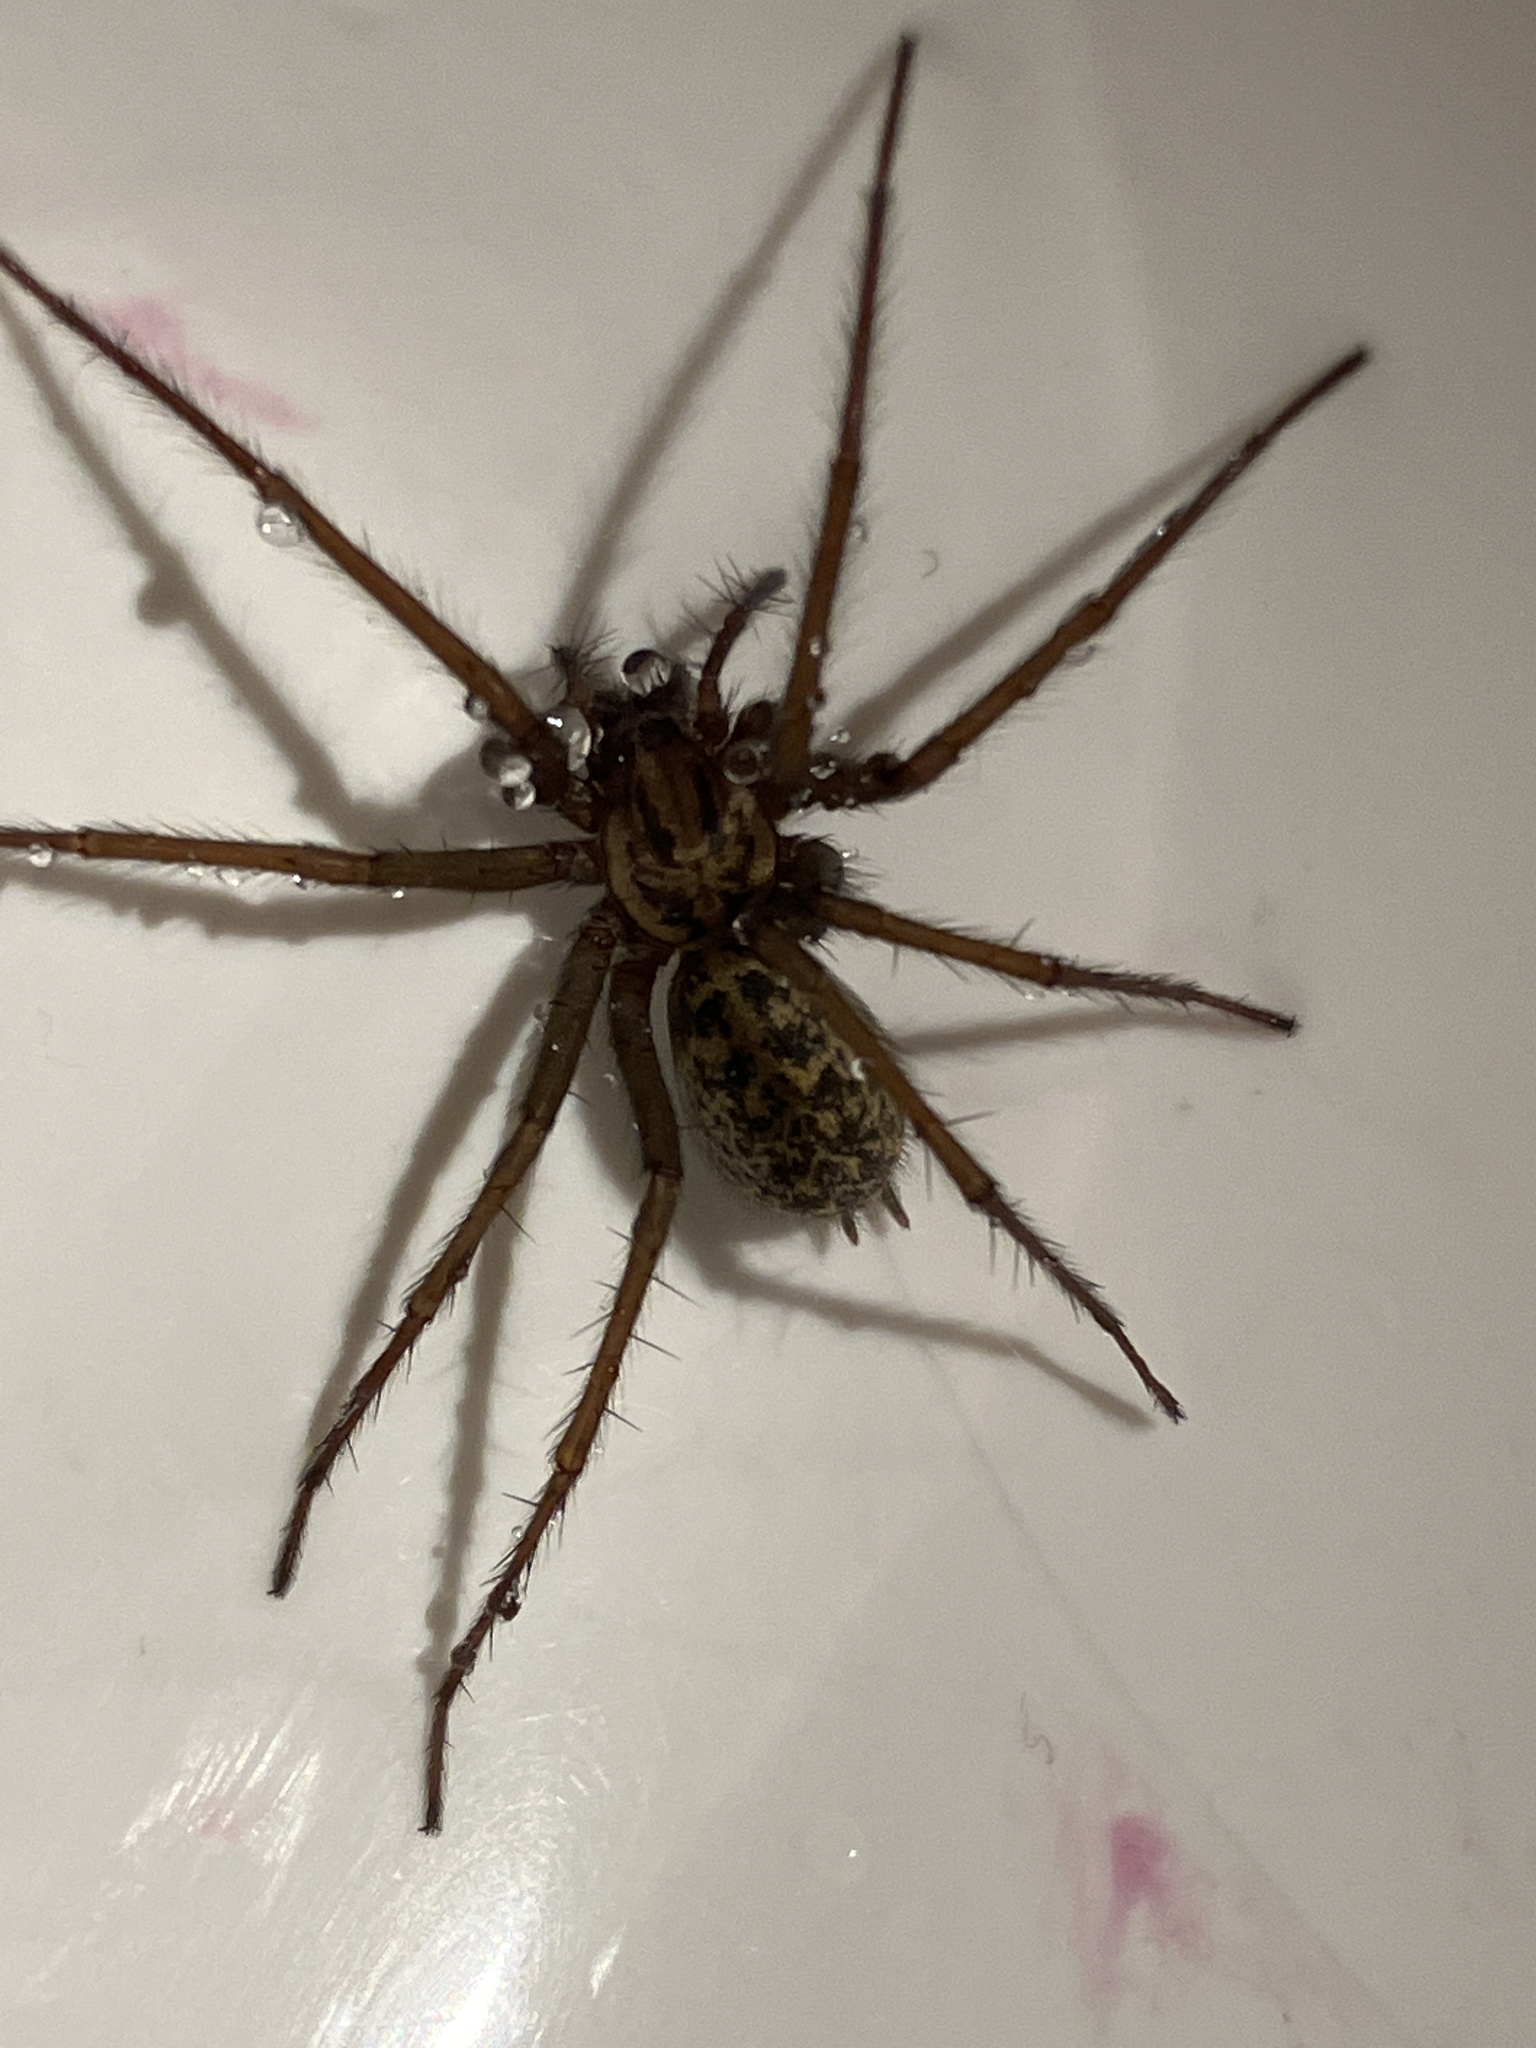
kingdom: Animalia
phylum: Arthropoda
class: Arachnida
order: Araneae
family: Agelenidae
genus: Eratigena
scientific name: Eratigena duellica
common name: Giant house spider
